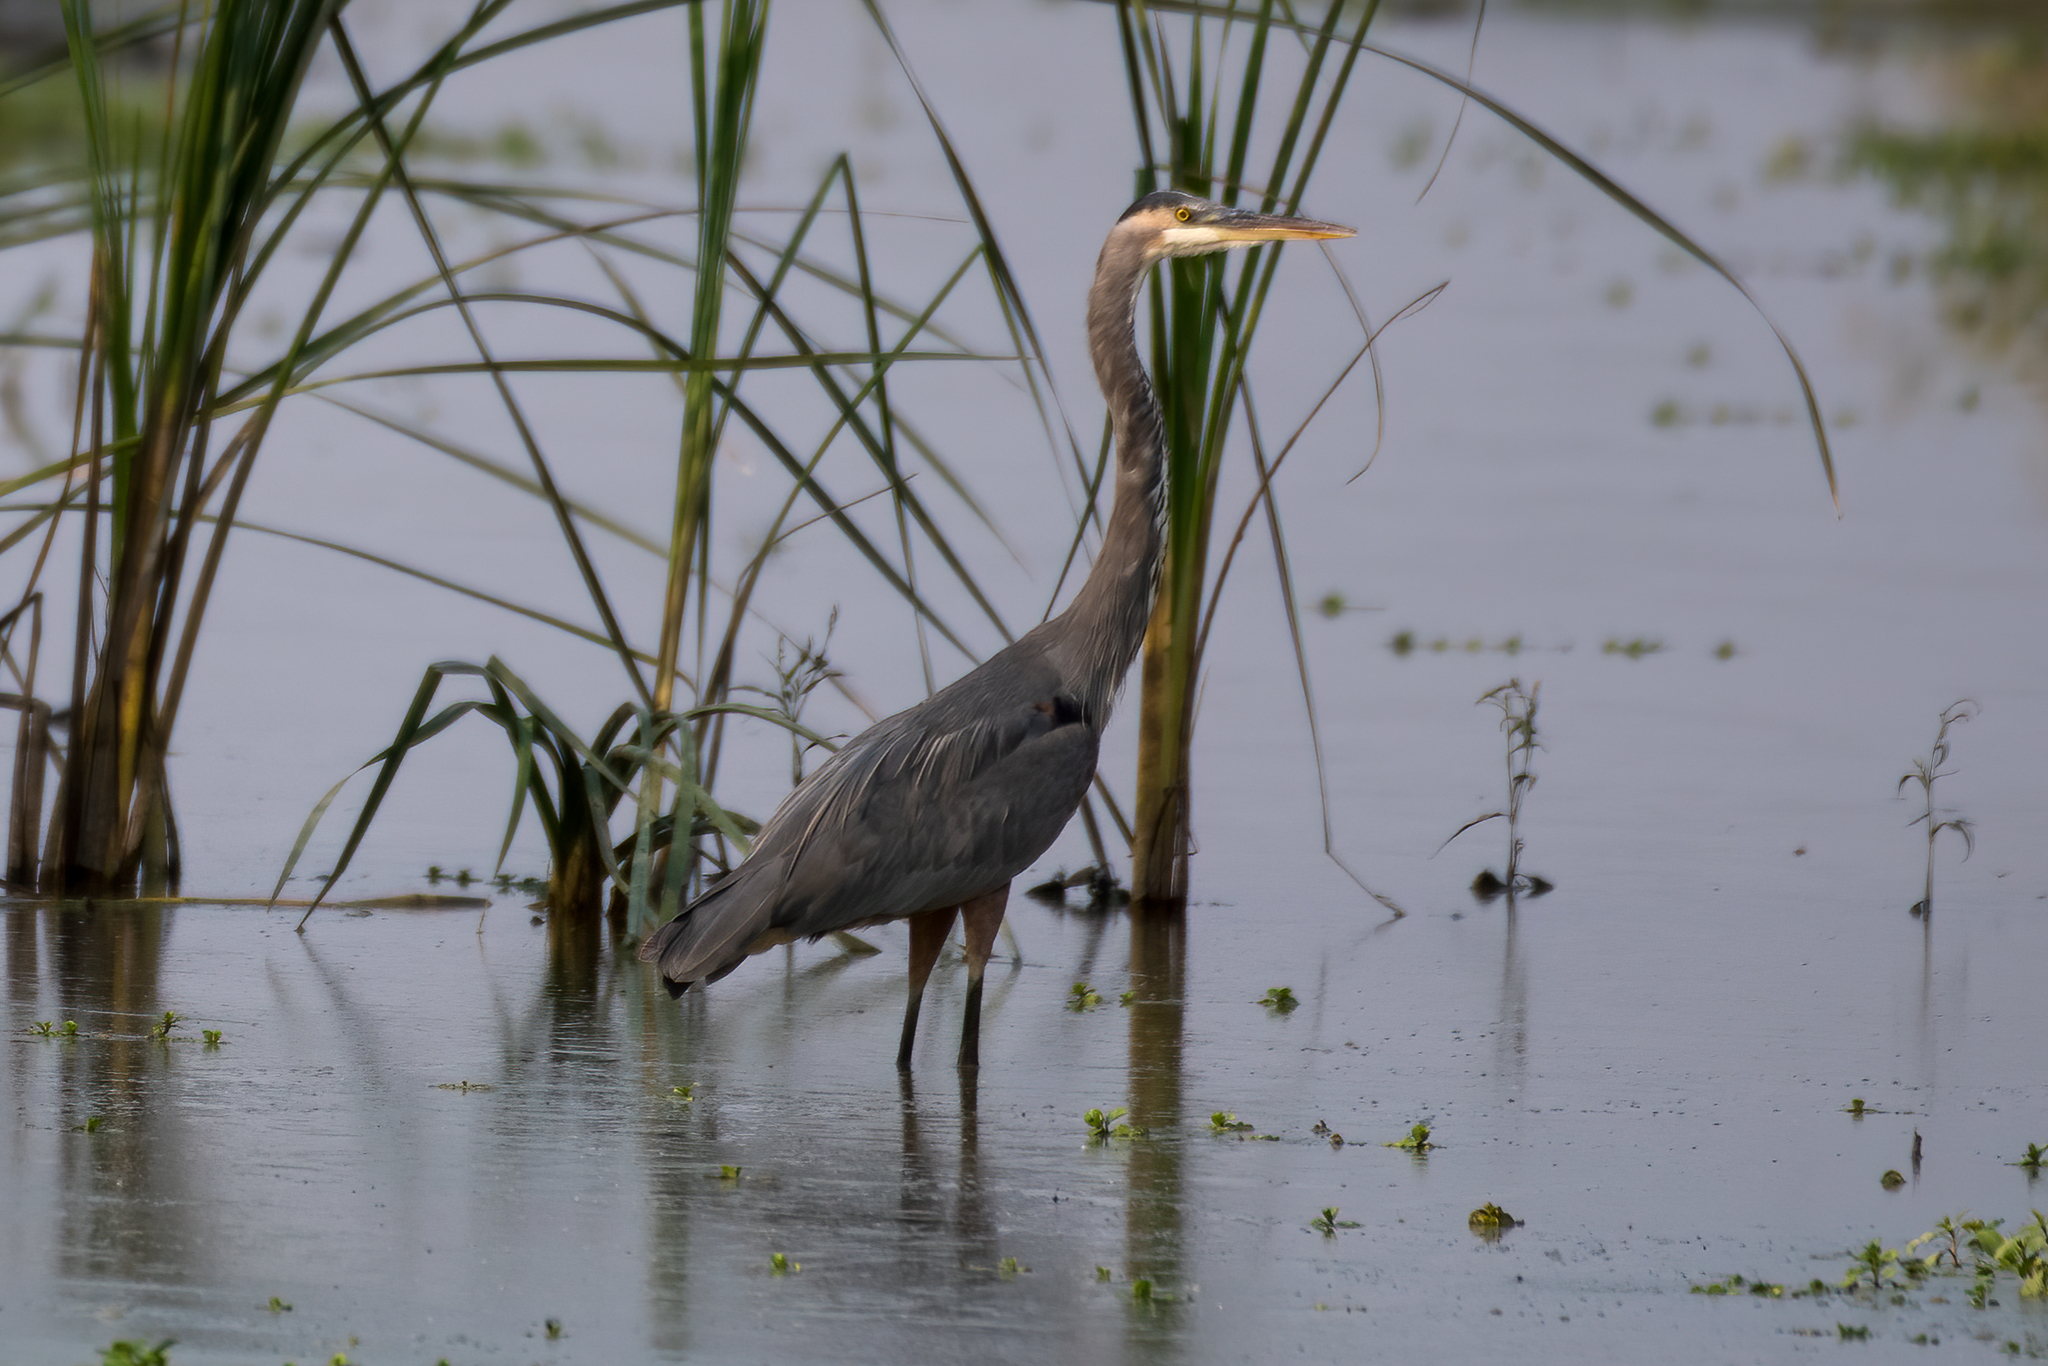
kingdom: Animalia
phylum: Chordata
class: Aves
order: Pelecaniformes
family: Ardeidae
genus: Ardea
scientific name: Ardea herodias
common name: Great blue heron
